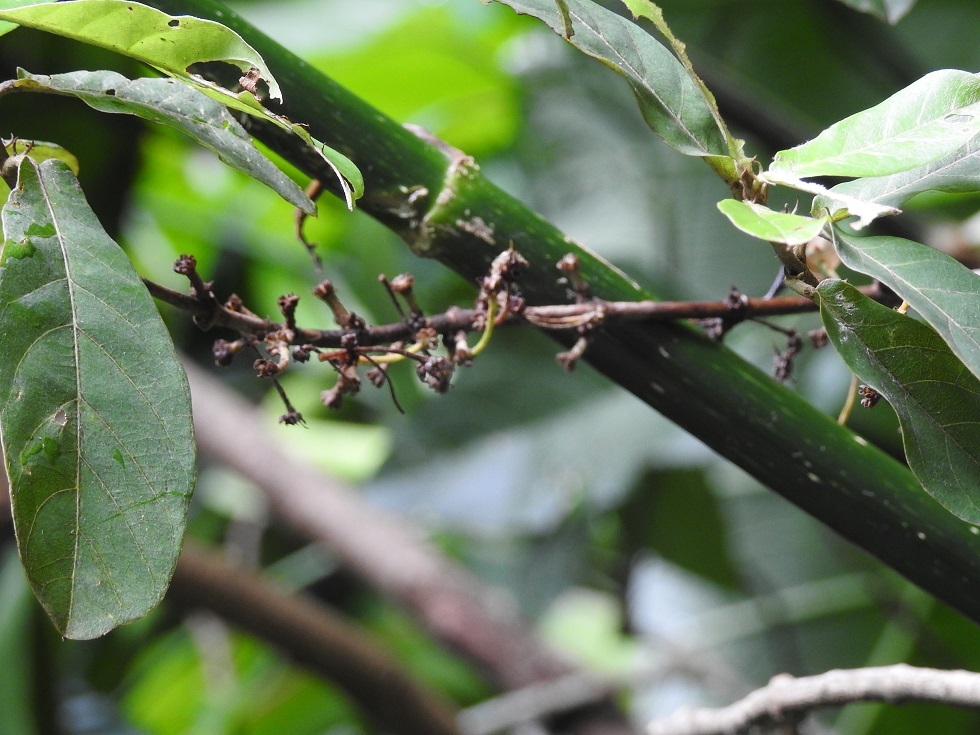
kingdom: Plantae
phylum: Tracheophyta
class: Magnoliopsida
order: Malpighiales
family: Malpighiaceae
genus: Bunchosia
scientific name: Bunchosia montana
